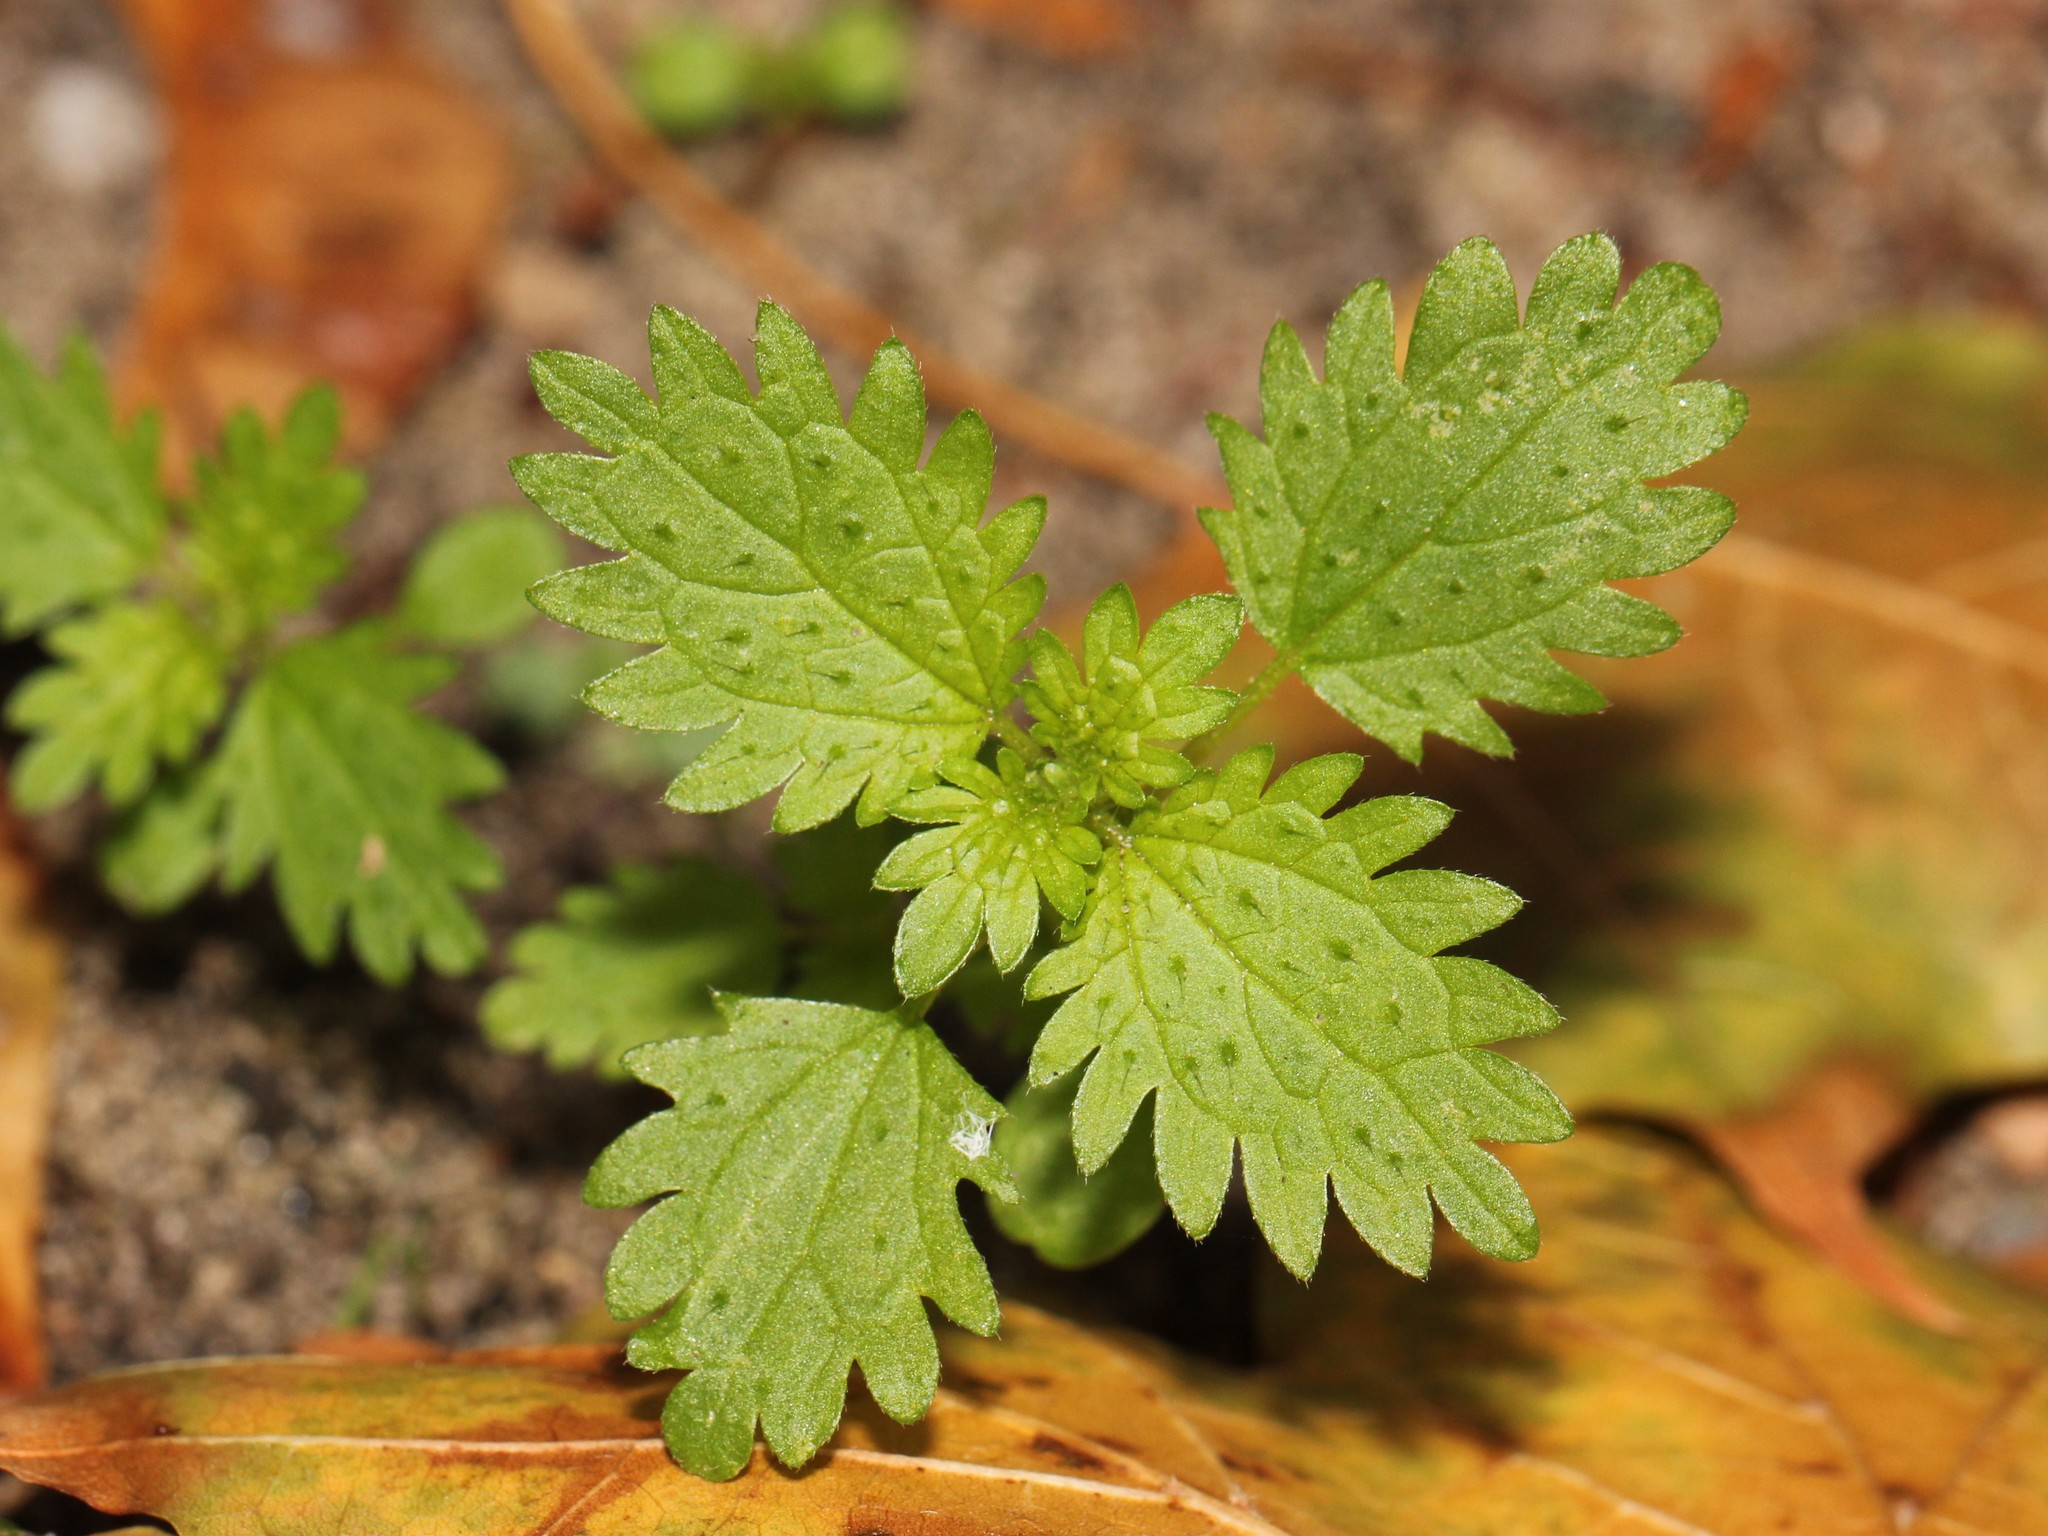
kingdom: Plantae
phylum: Tracheophyta
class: Magnoliopsida
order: Rosales
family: Urticaceae
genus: Urtica
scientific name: Urtica urens
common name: Dwarf nettle
